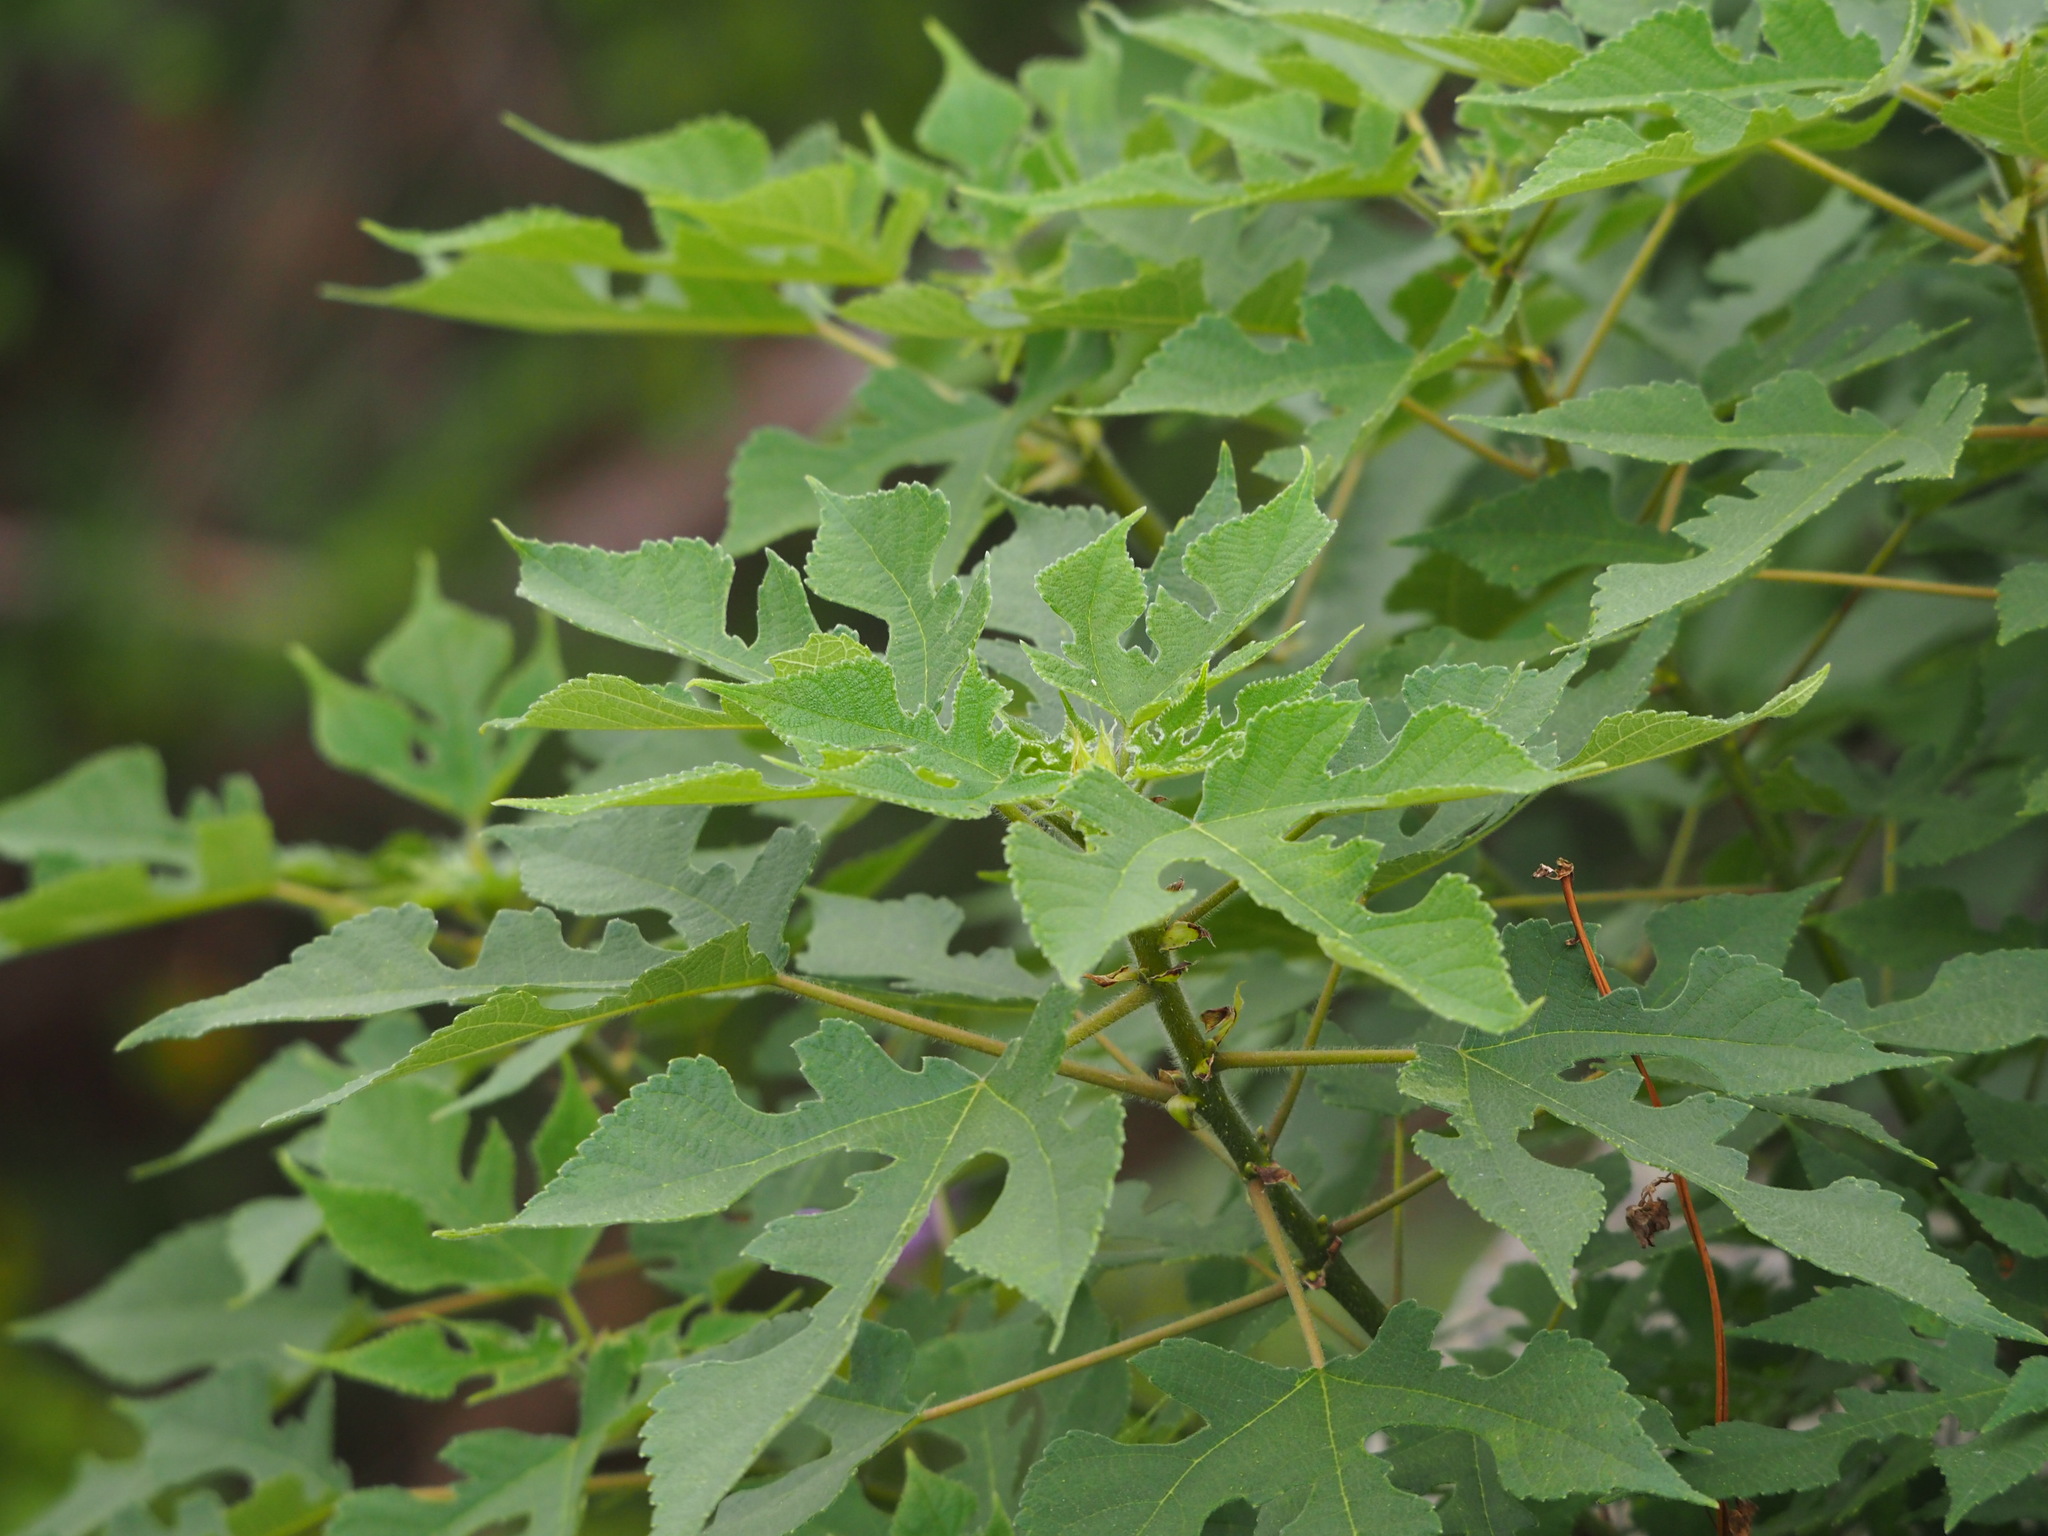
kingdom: Plantae
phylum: Tracheophyta
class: Magnoliopsida
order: Rosales
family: Moraceae
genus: Broussonetia
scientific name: Broussonetia papyrifera
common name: Paper mulberry
